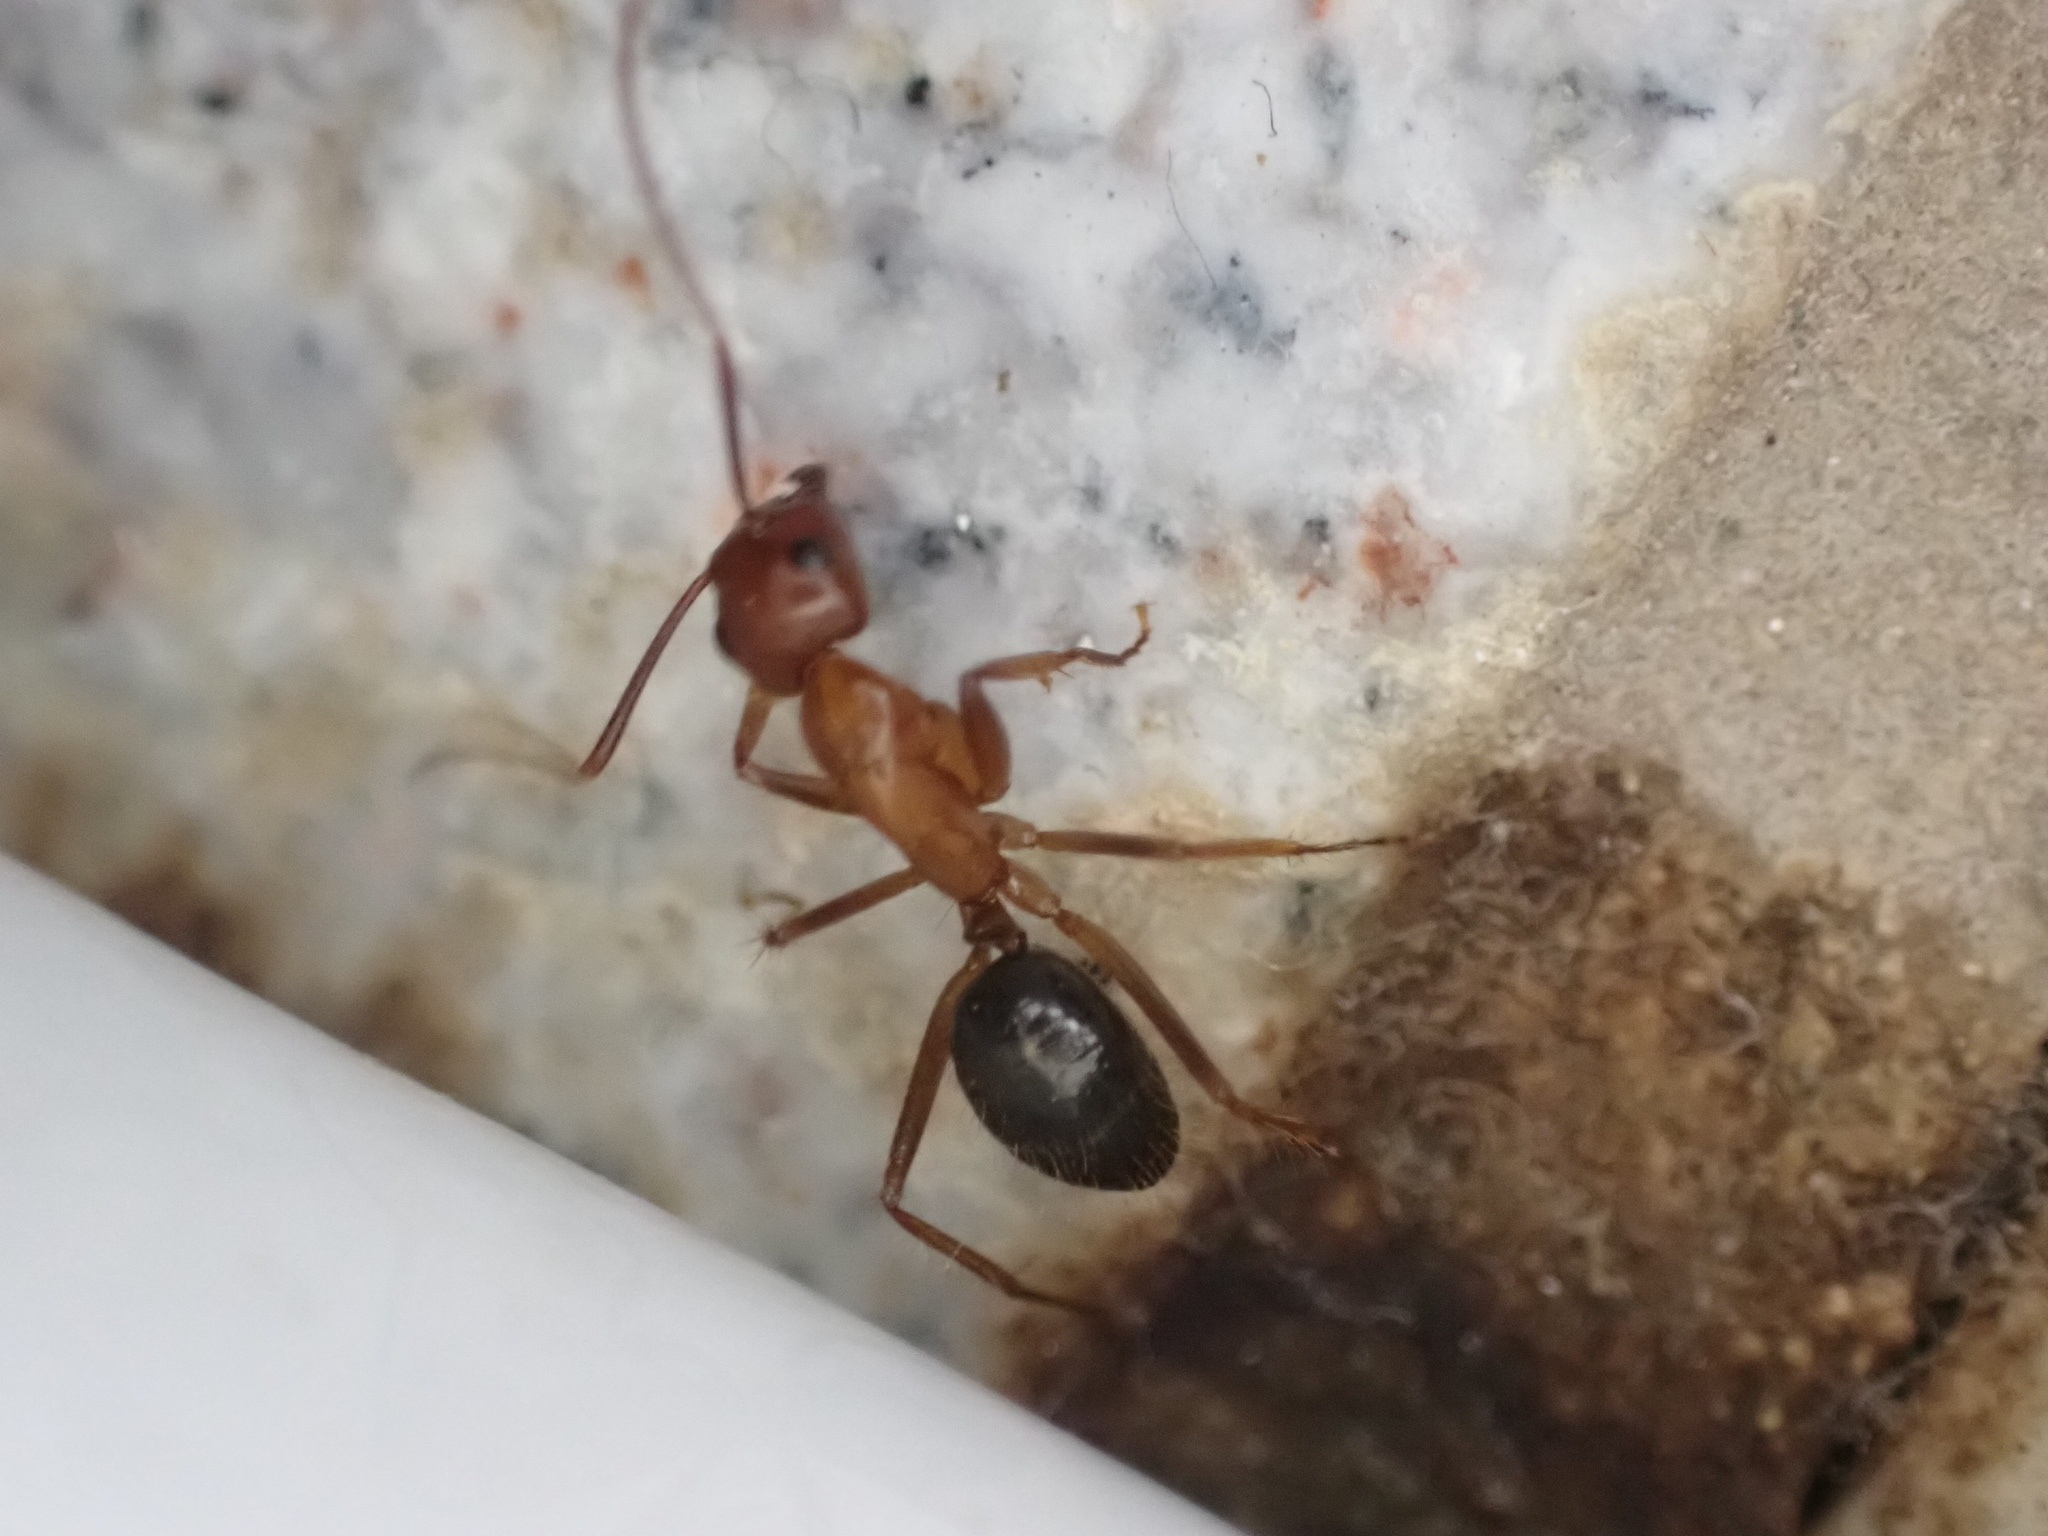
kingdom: Animalia
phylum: Arthropoda
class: Insecta
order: Hymenoptera
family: Formicidae
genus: Camponotus
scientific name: Camponotus floridanus
